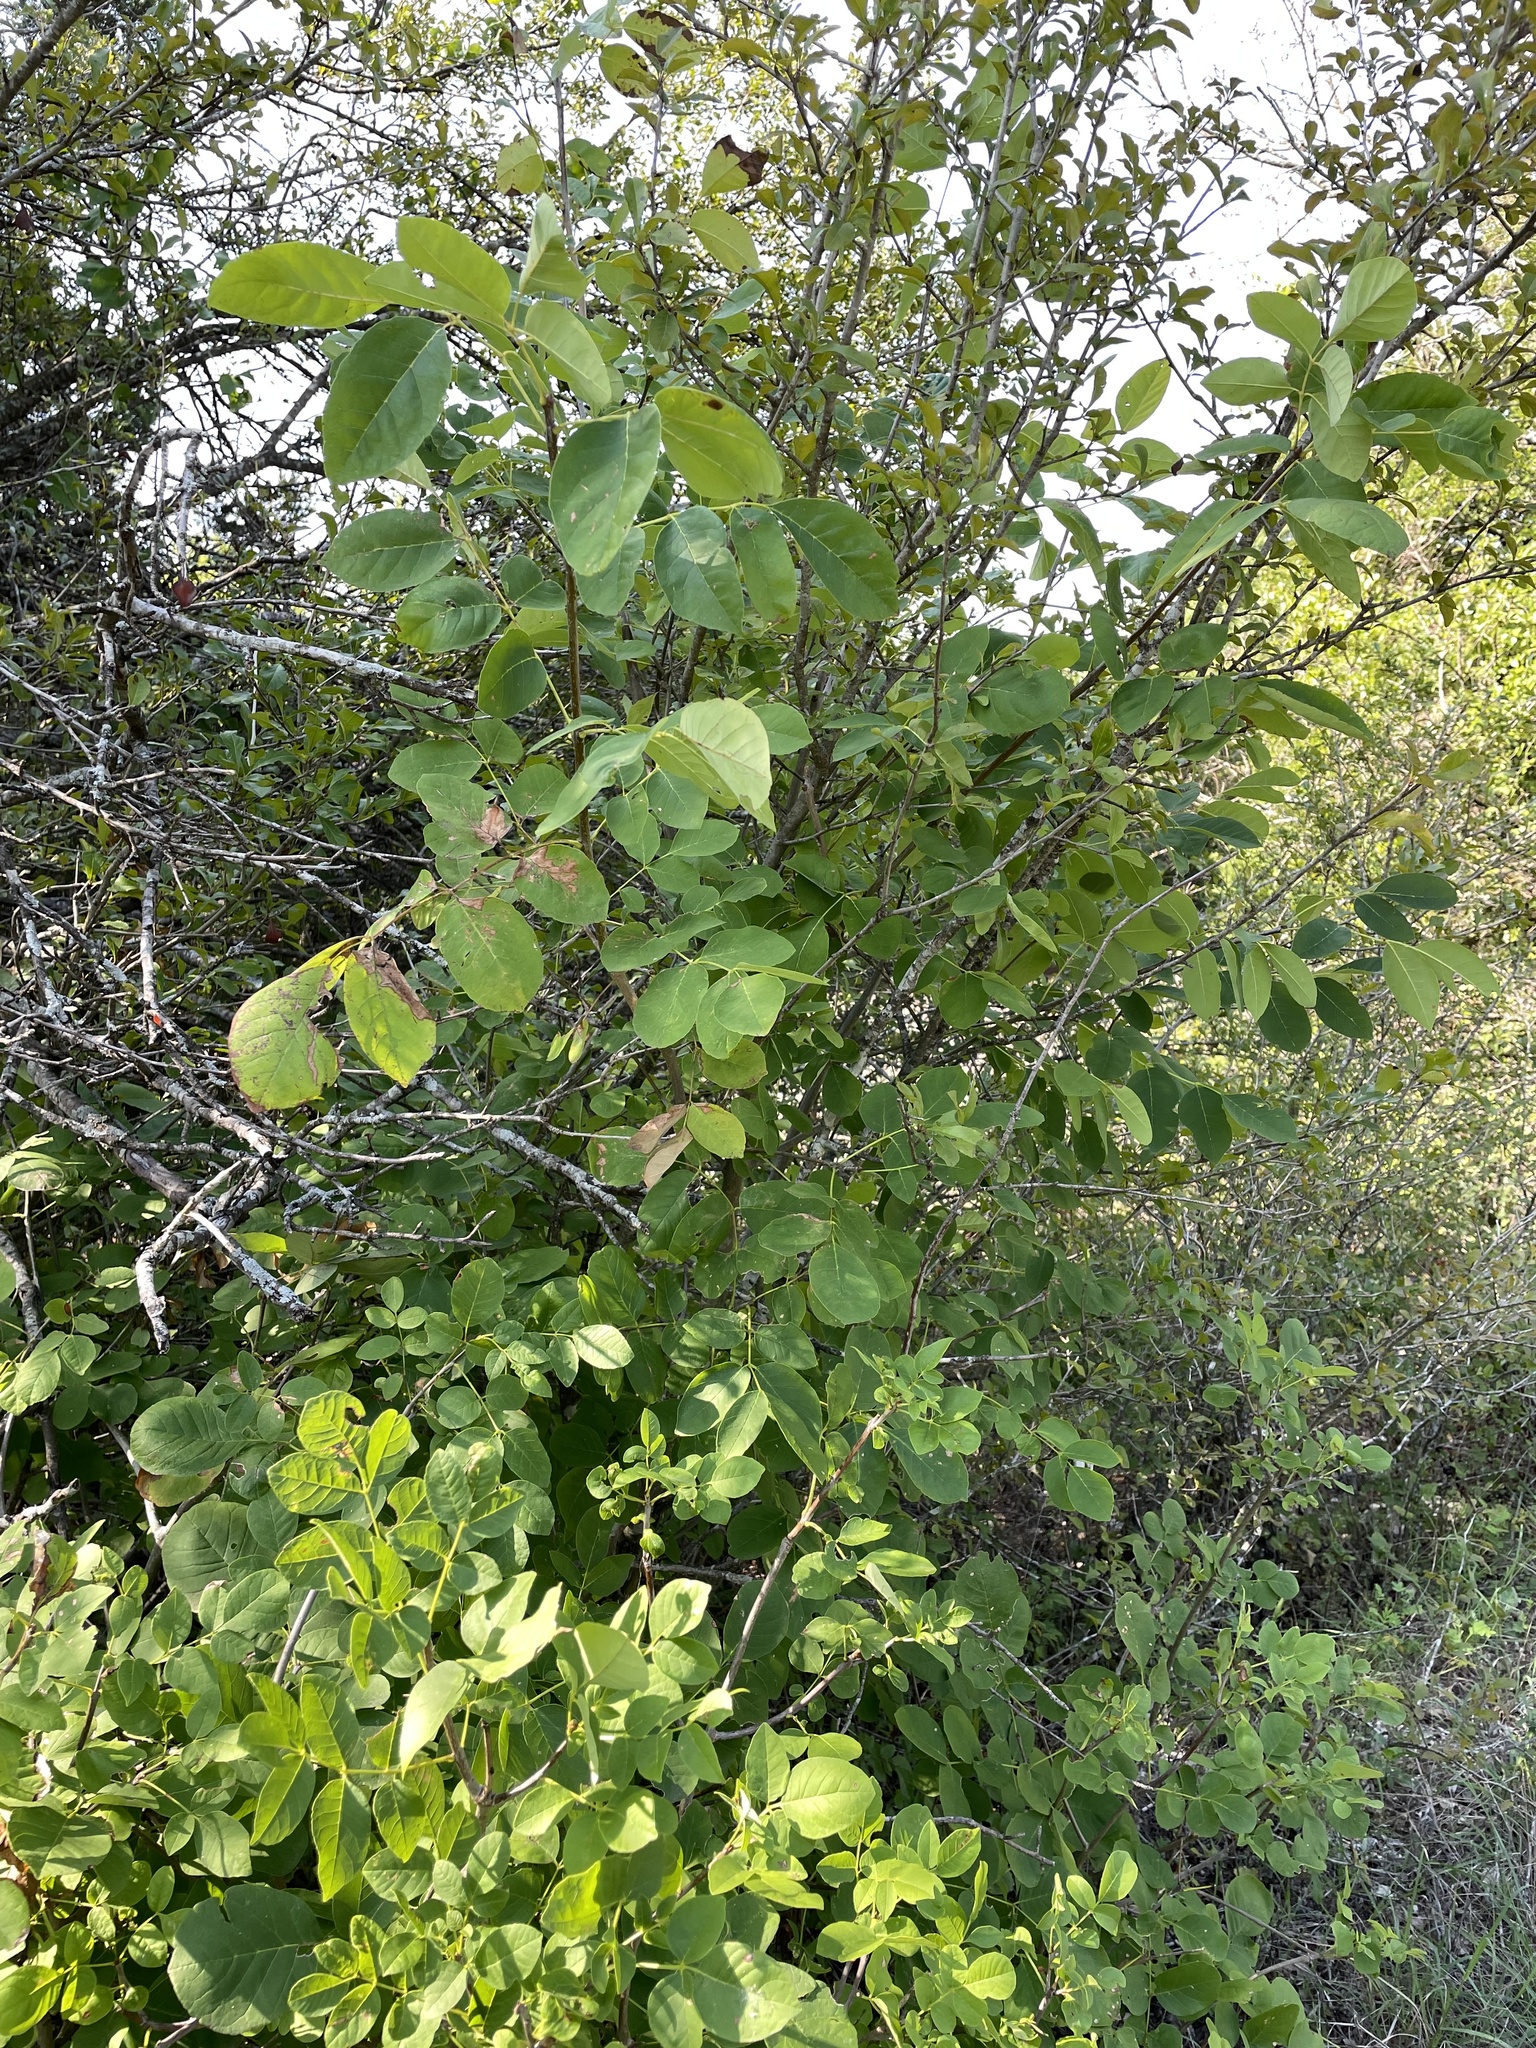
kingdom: Plantae
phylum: Tracheophyta
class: Magnoliopsida
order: Lamiales
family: Oleaceae
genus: Fraxinus
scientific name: Fraxinus albicans
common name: Texas ash
